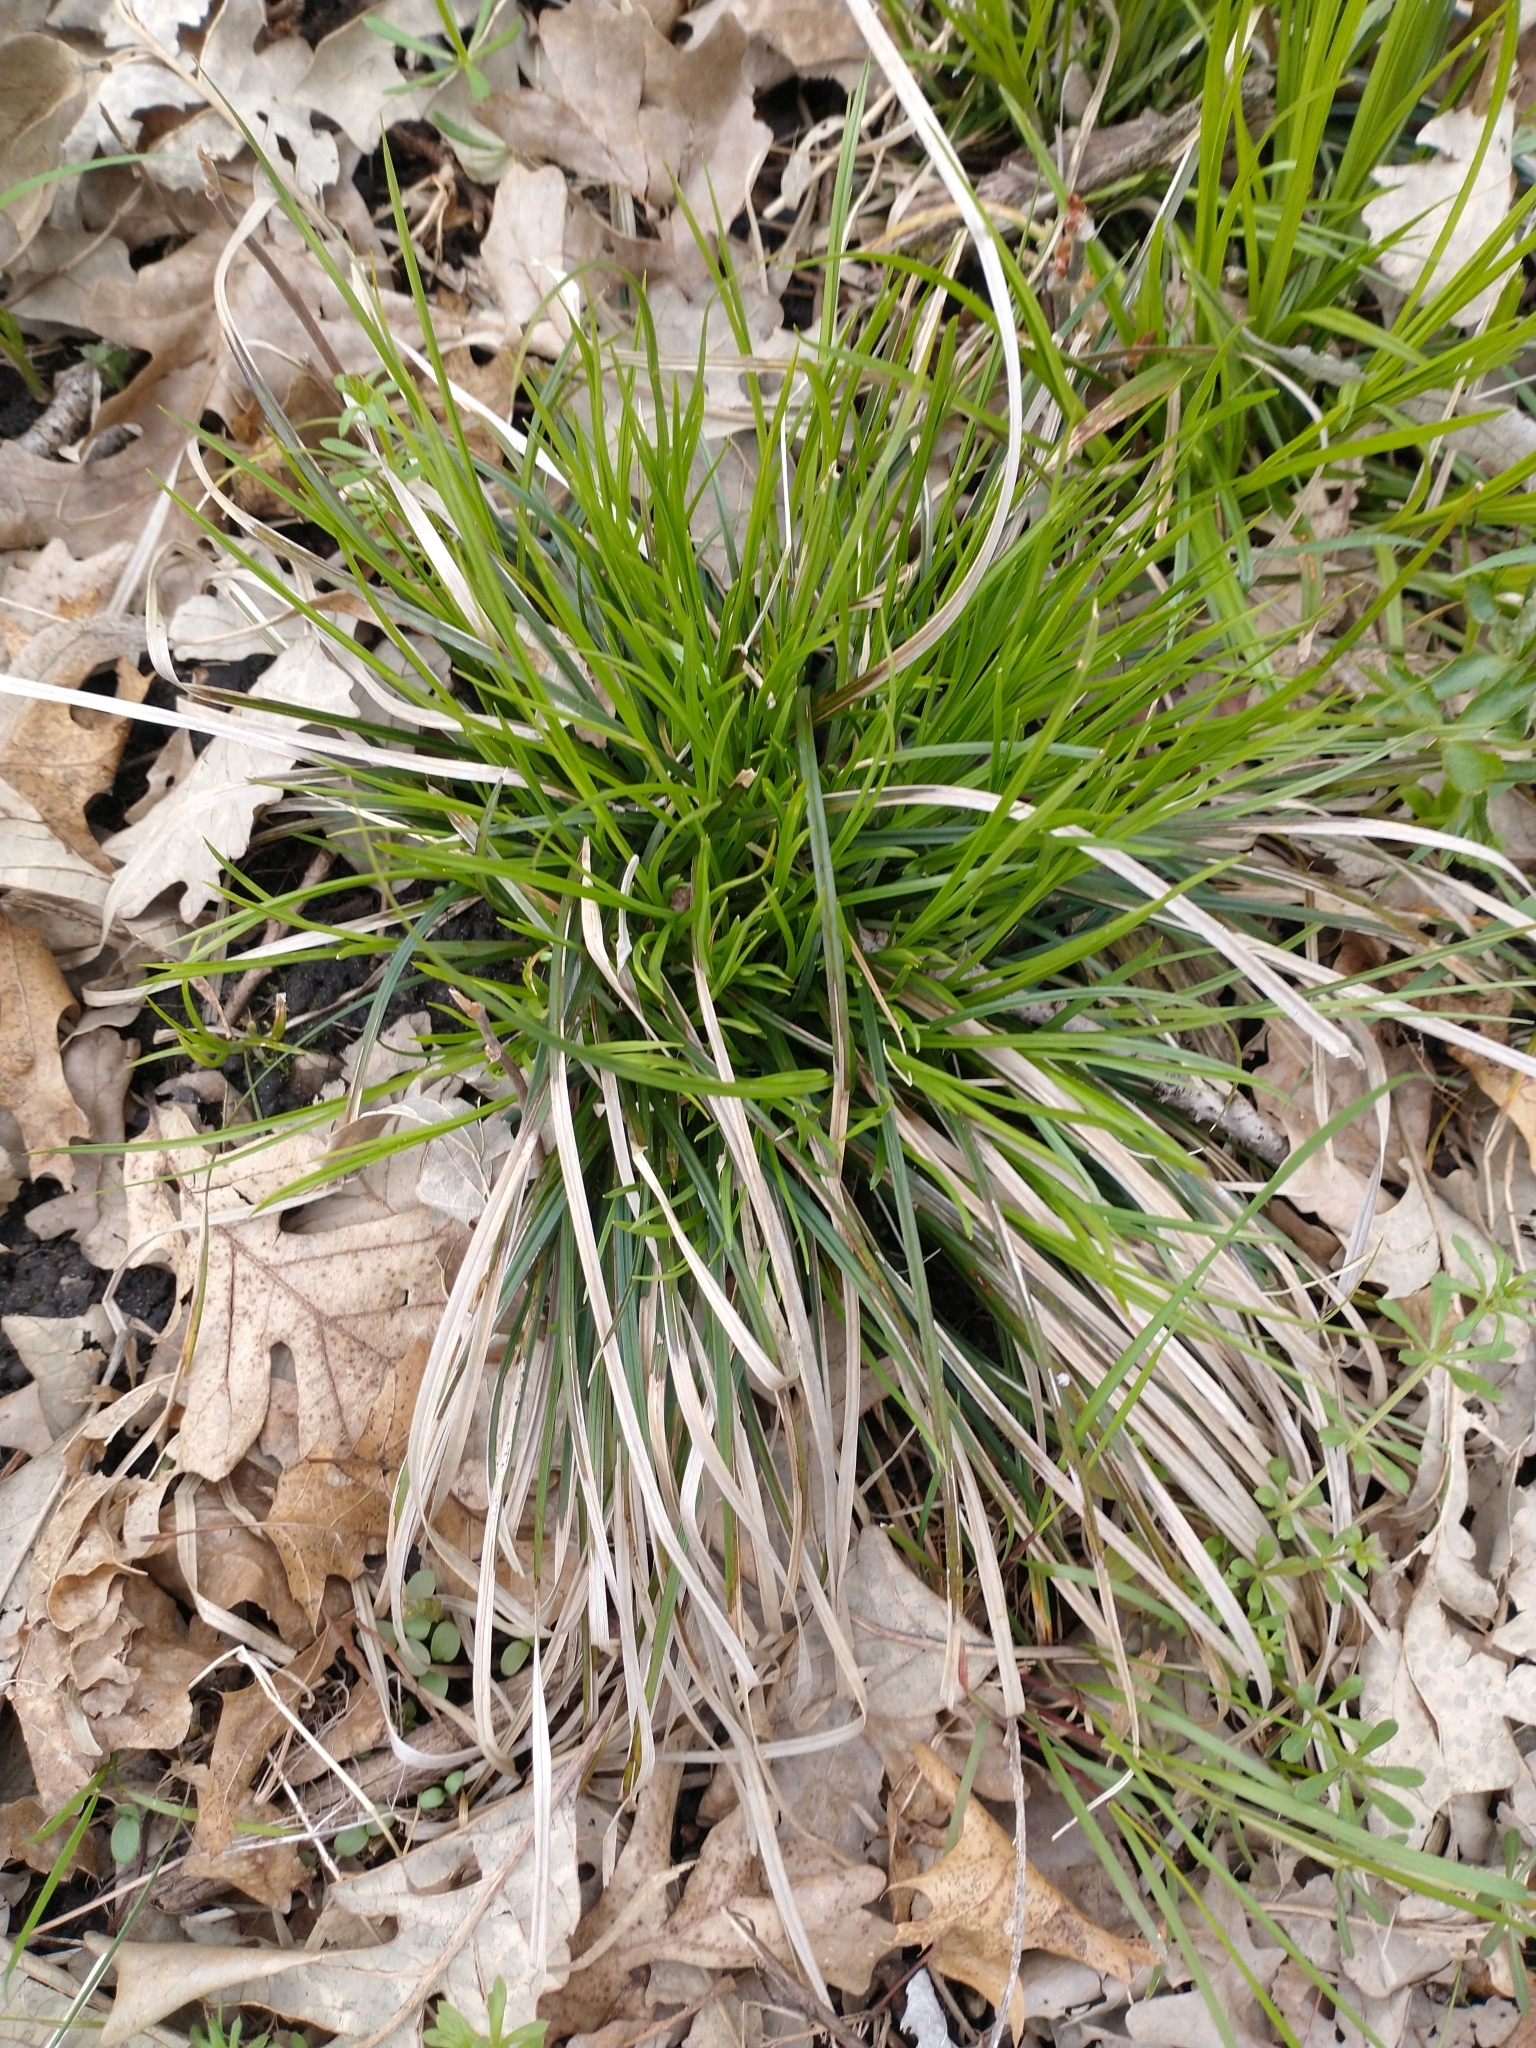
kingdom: Plantae
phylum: Tracheophyta
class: Liliopsida
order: Poales
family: Cyperaceae
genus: Carex
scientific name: Carex pensylvanica
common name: Common oak sedge
